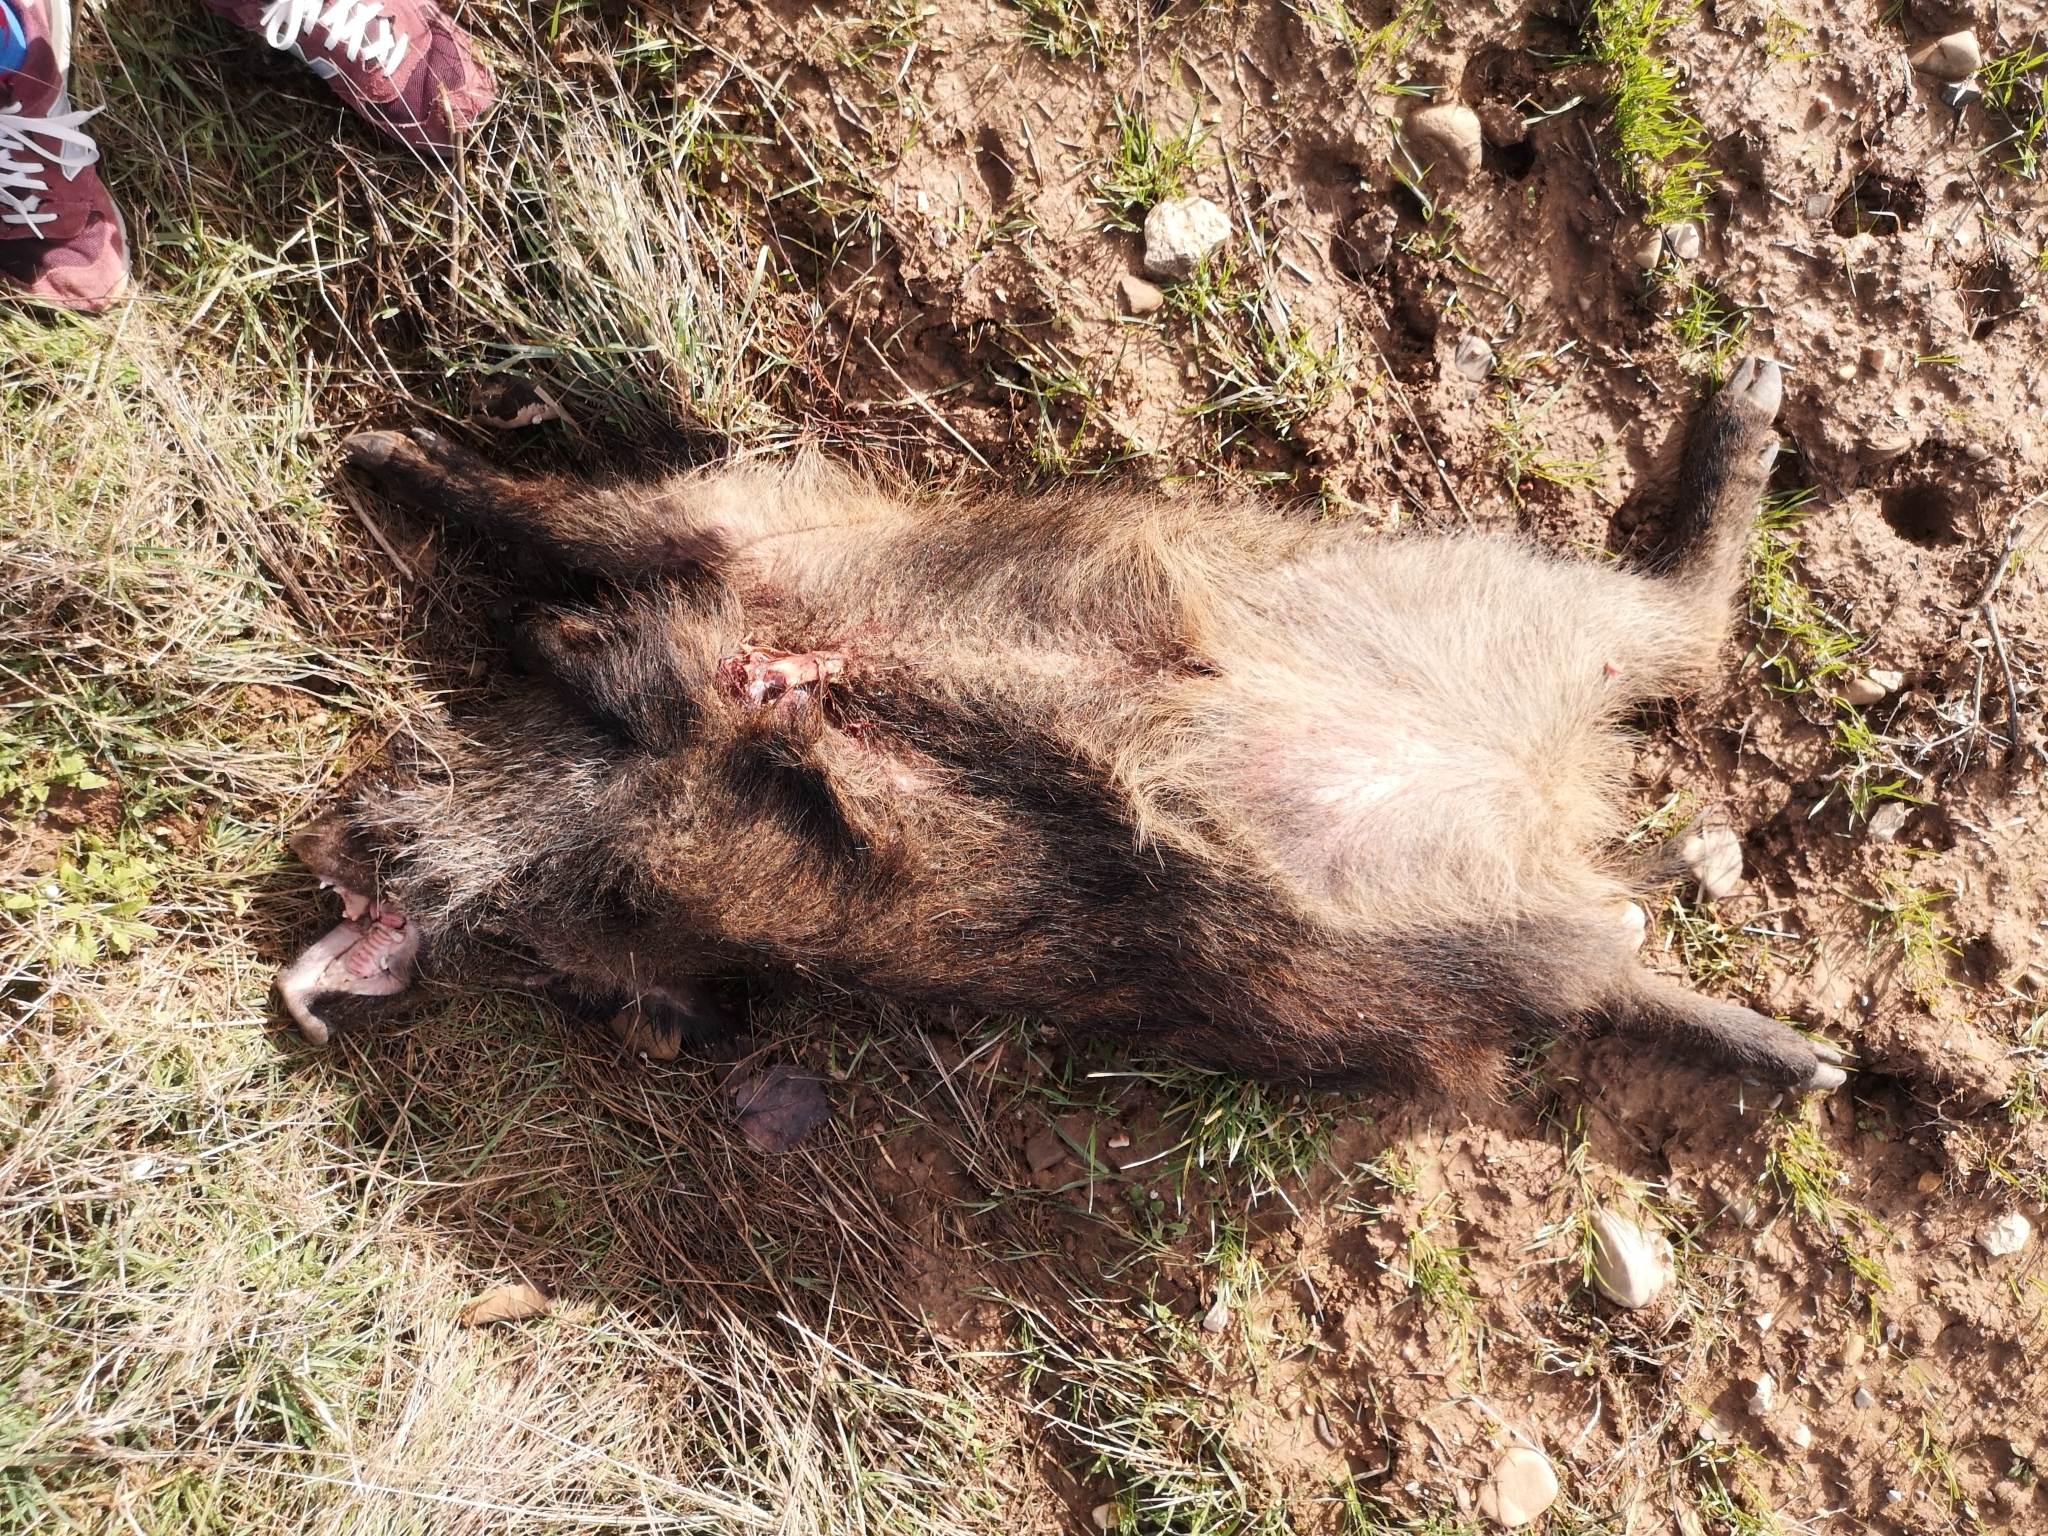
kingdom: Animalia
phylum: Chordata
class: Mammalia
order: Artiodactyla
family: Suidae
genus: Sus
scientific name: Sus scrofa
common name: Wild boar
